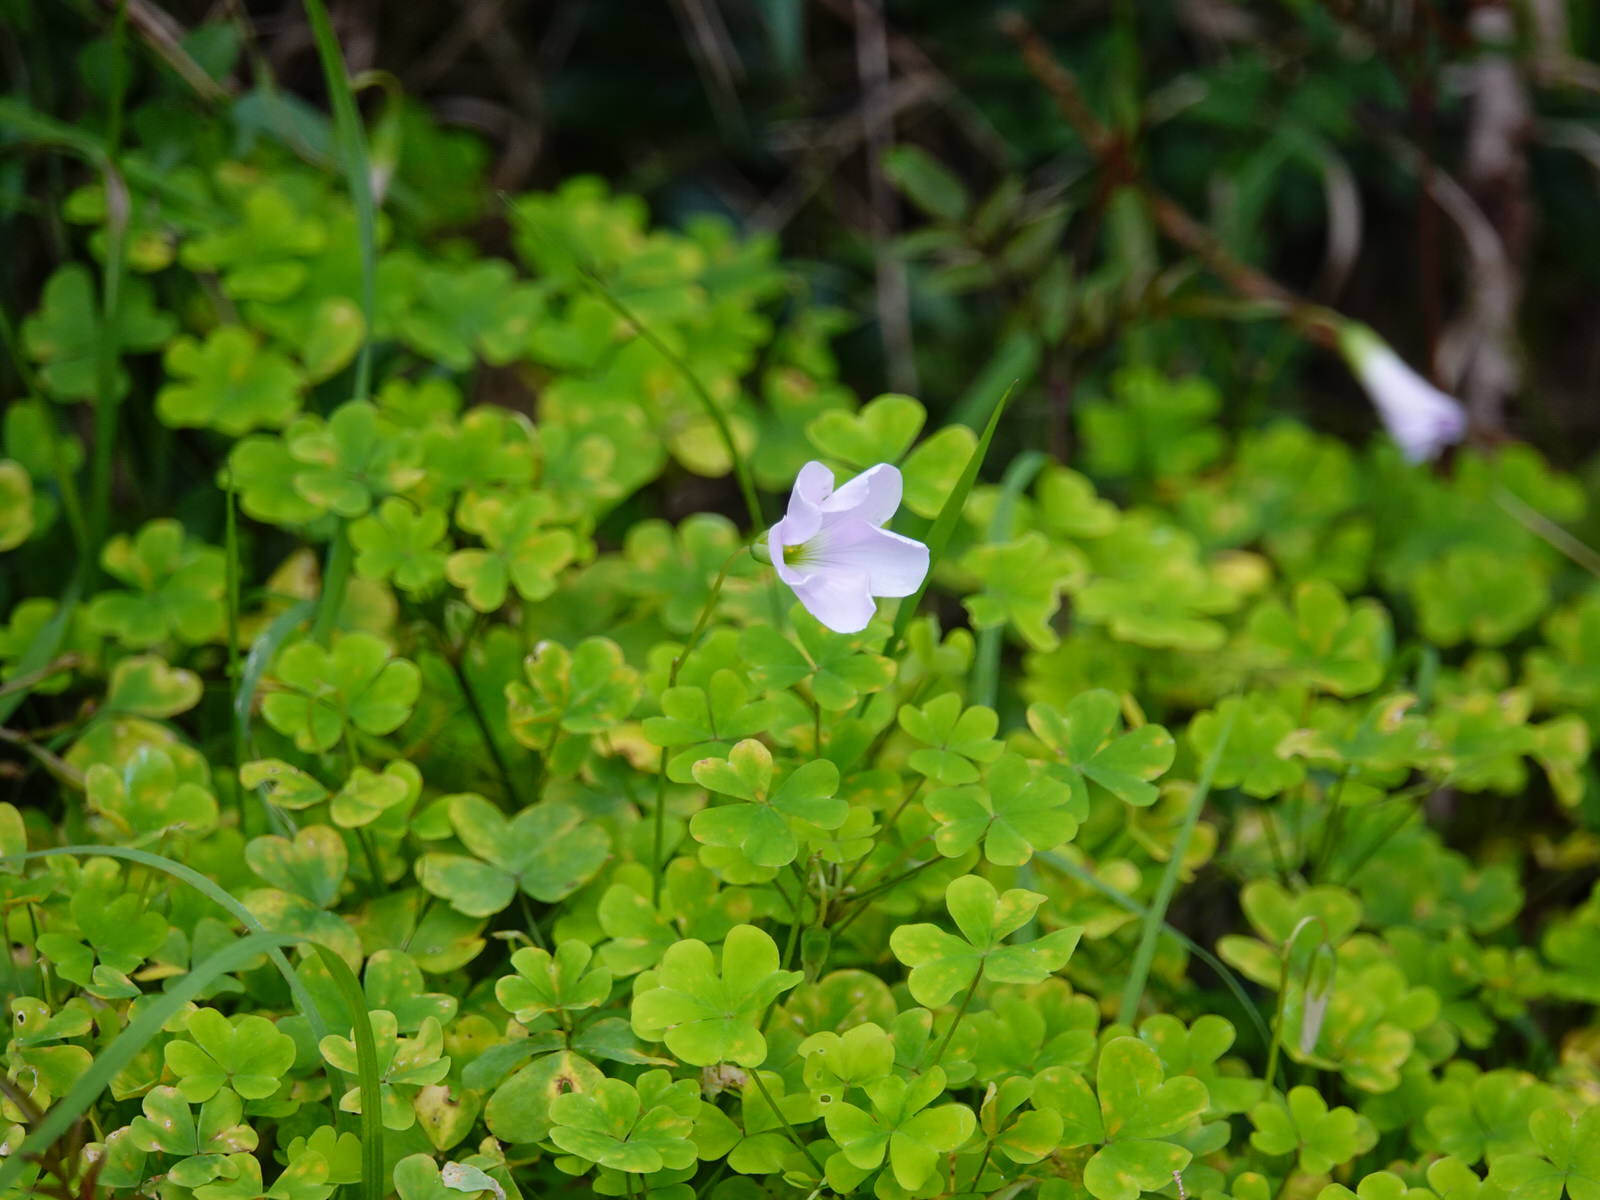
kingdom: Plantae
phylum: Tracheophyta
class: Magnoliopsida
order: Oxalidales
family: Oxalidaceae
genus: Oxalis
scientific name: Oxalis incarnata
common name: Pale pink-sorrel
